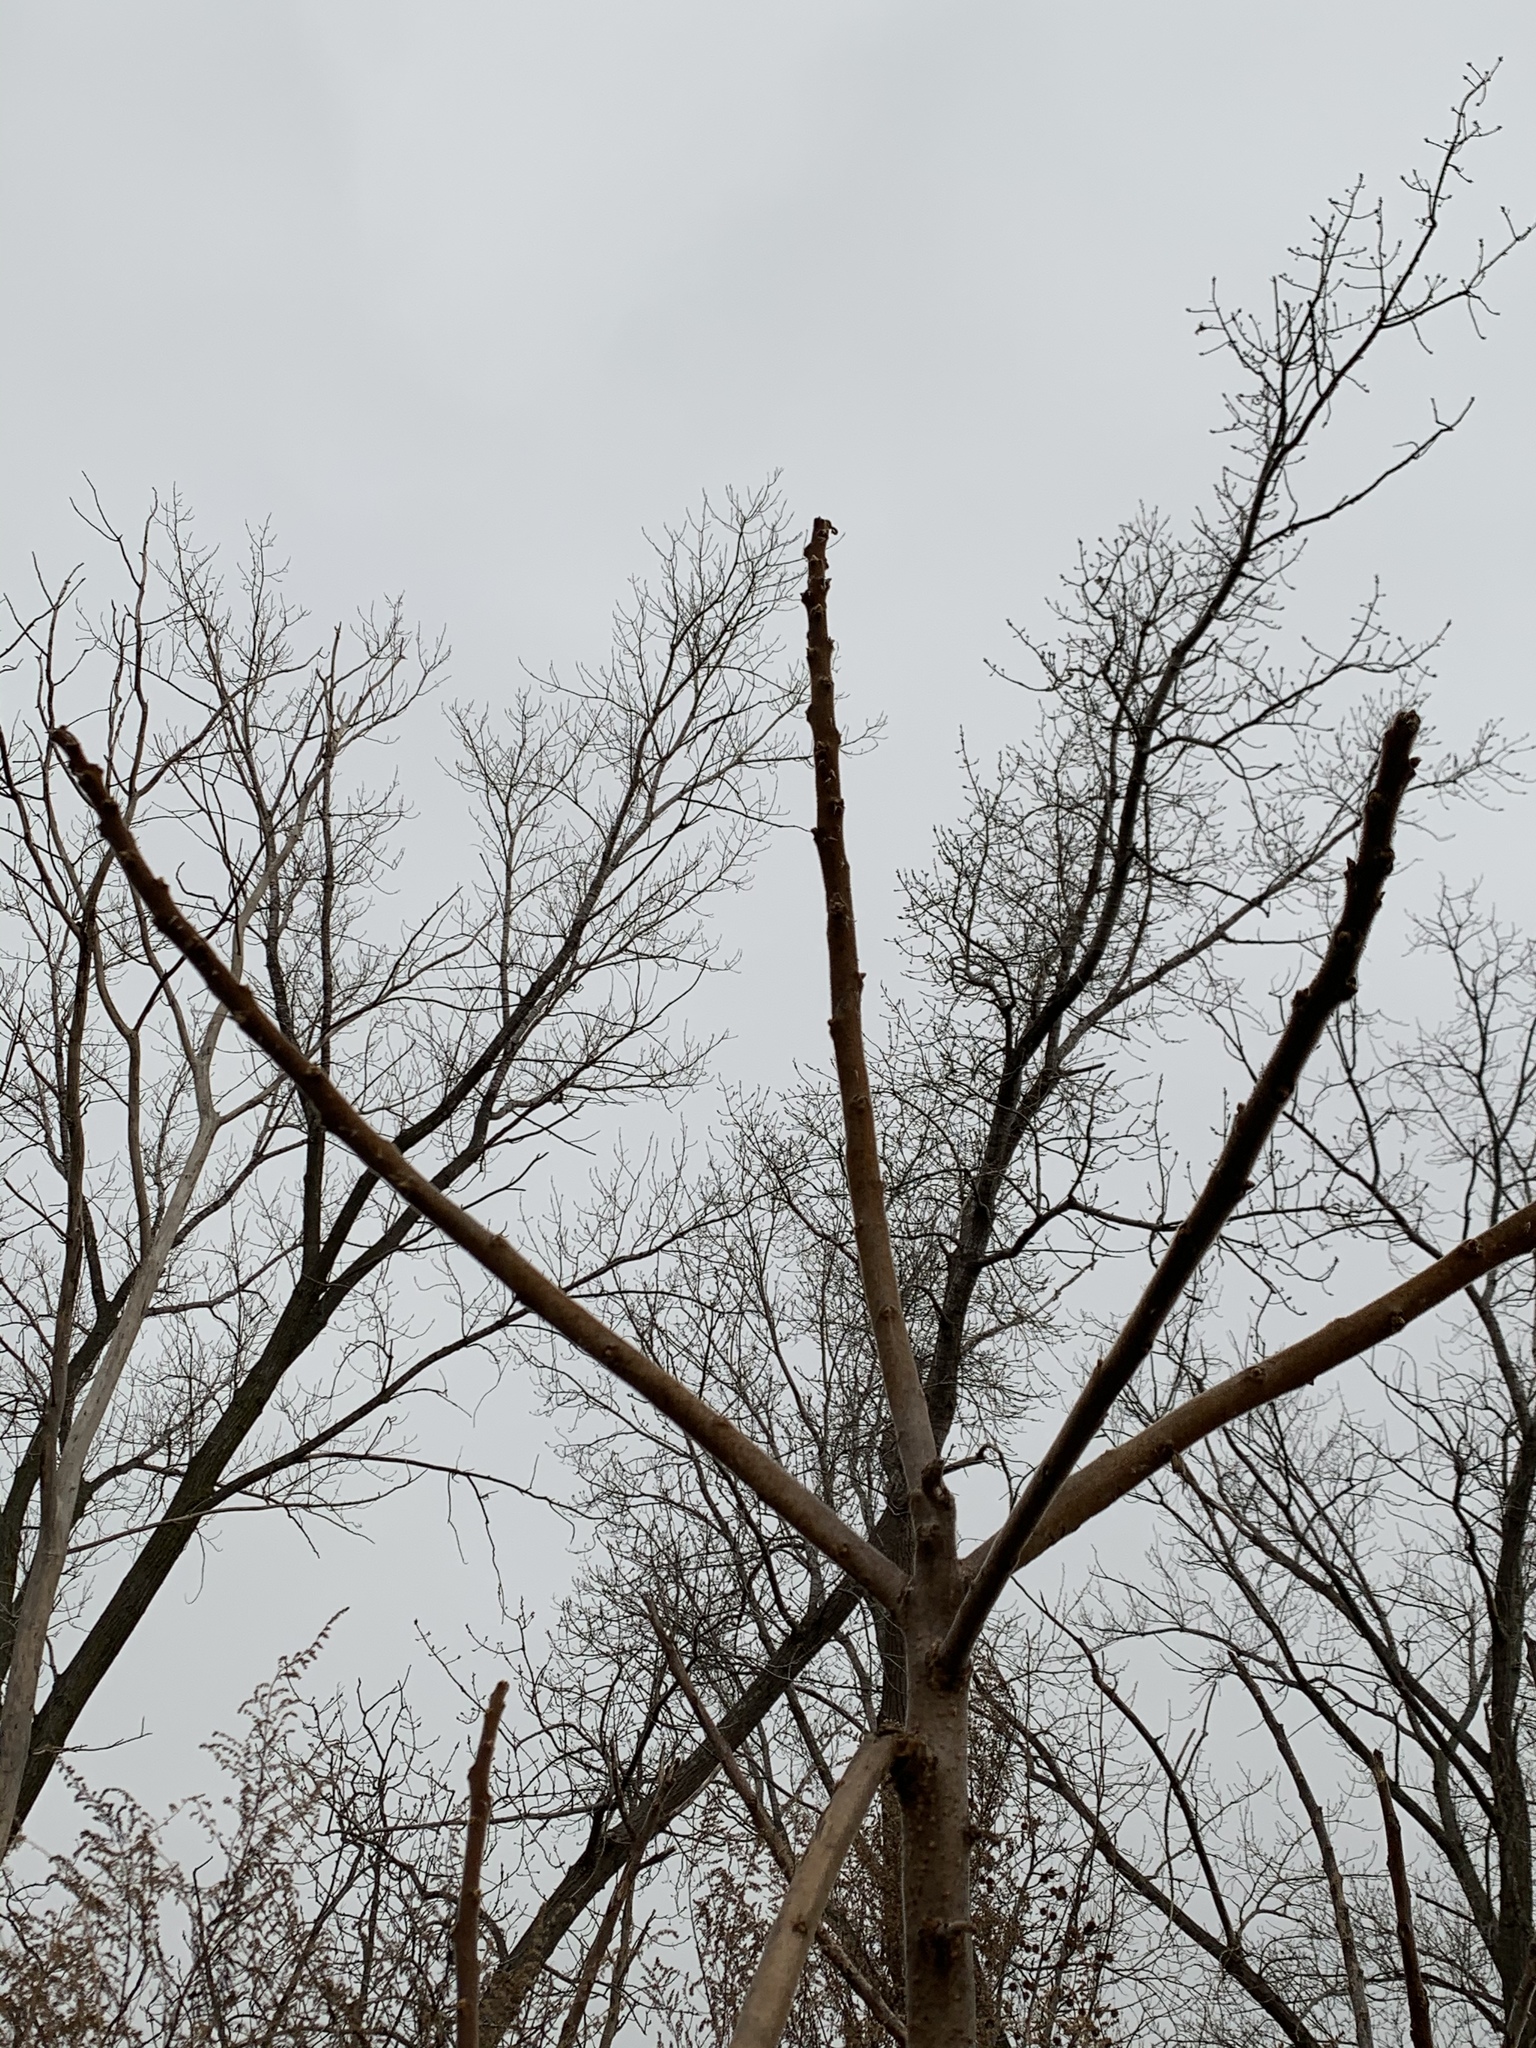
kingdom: Plantae
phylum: Tracheophyta
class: Magnoliopsida
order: Sapindales
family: Anacardiaceae
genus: Rhus
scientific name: Rhus typhina
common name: Staghorn sumac
